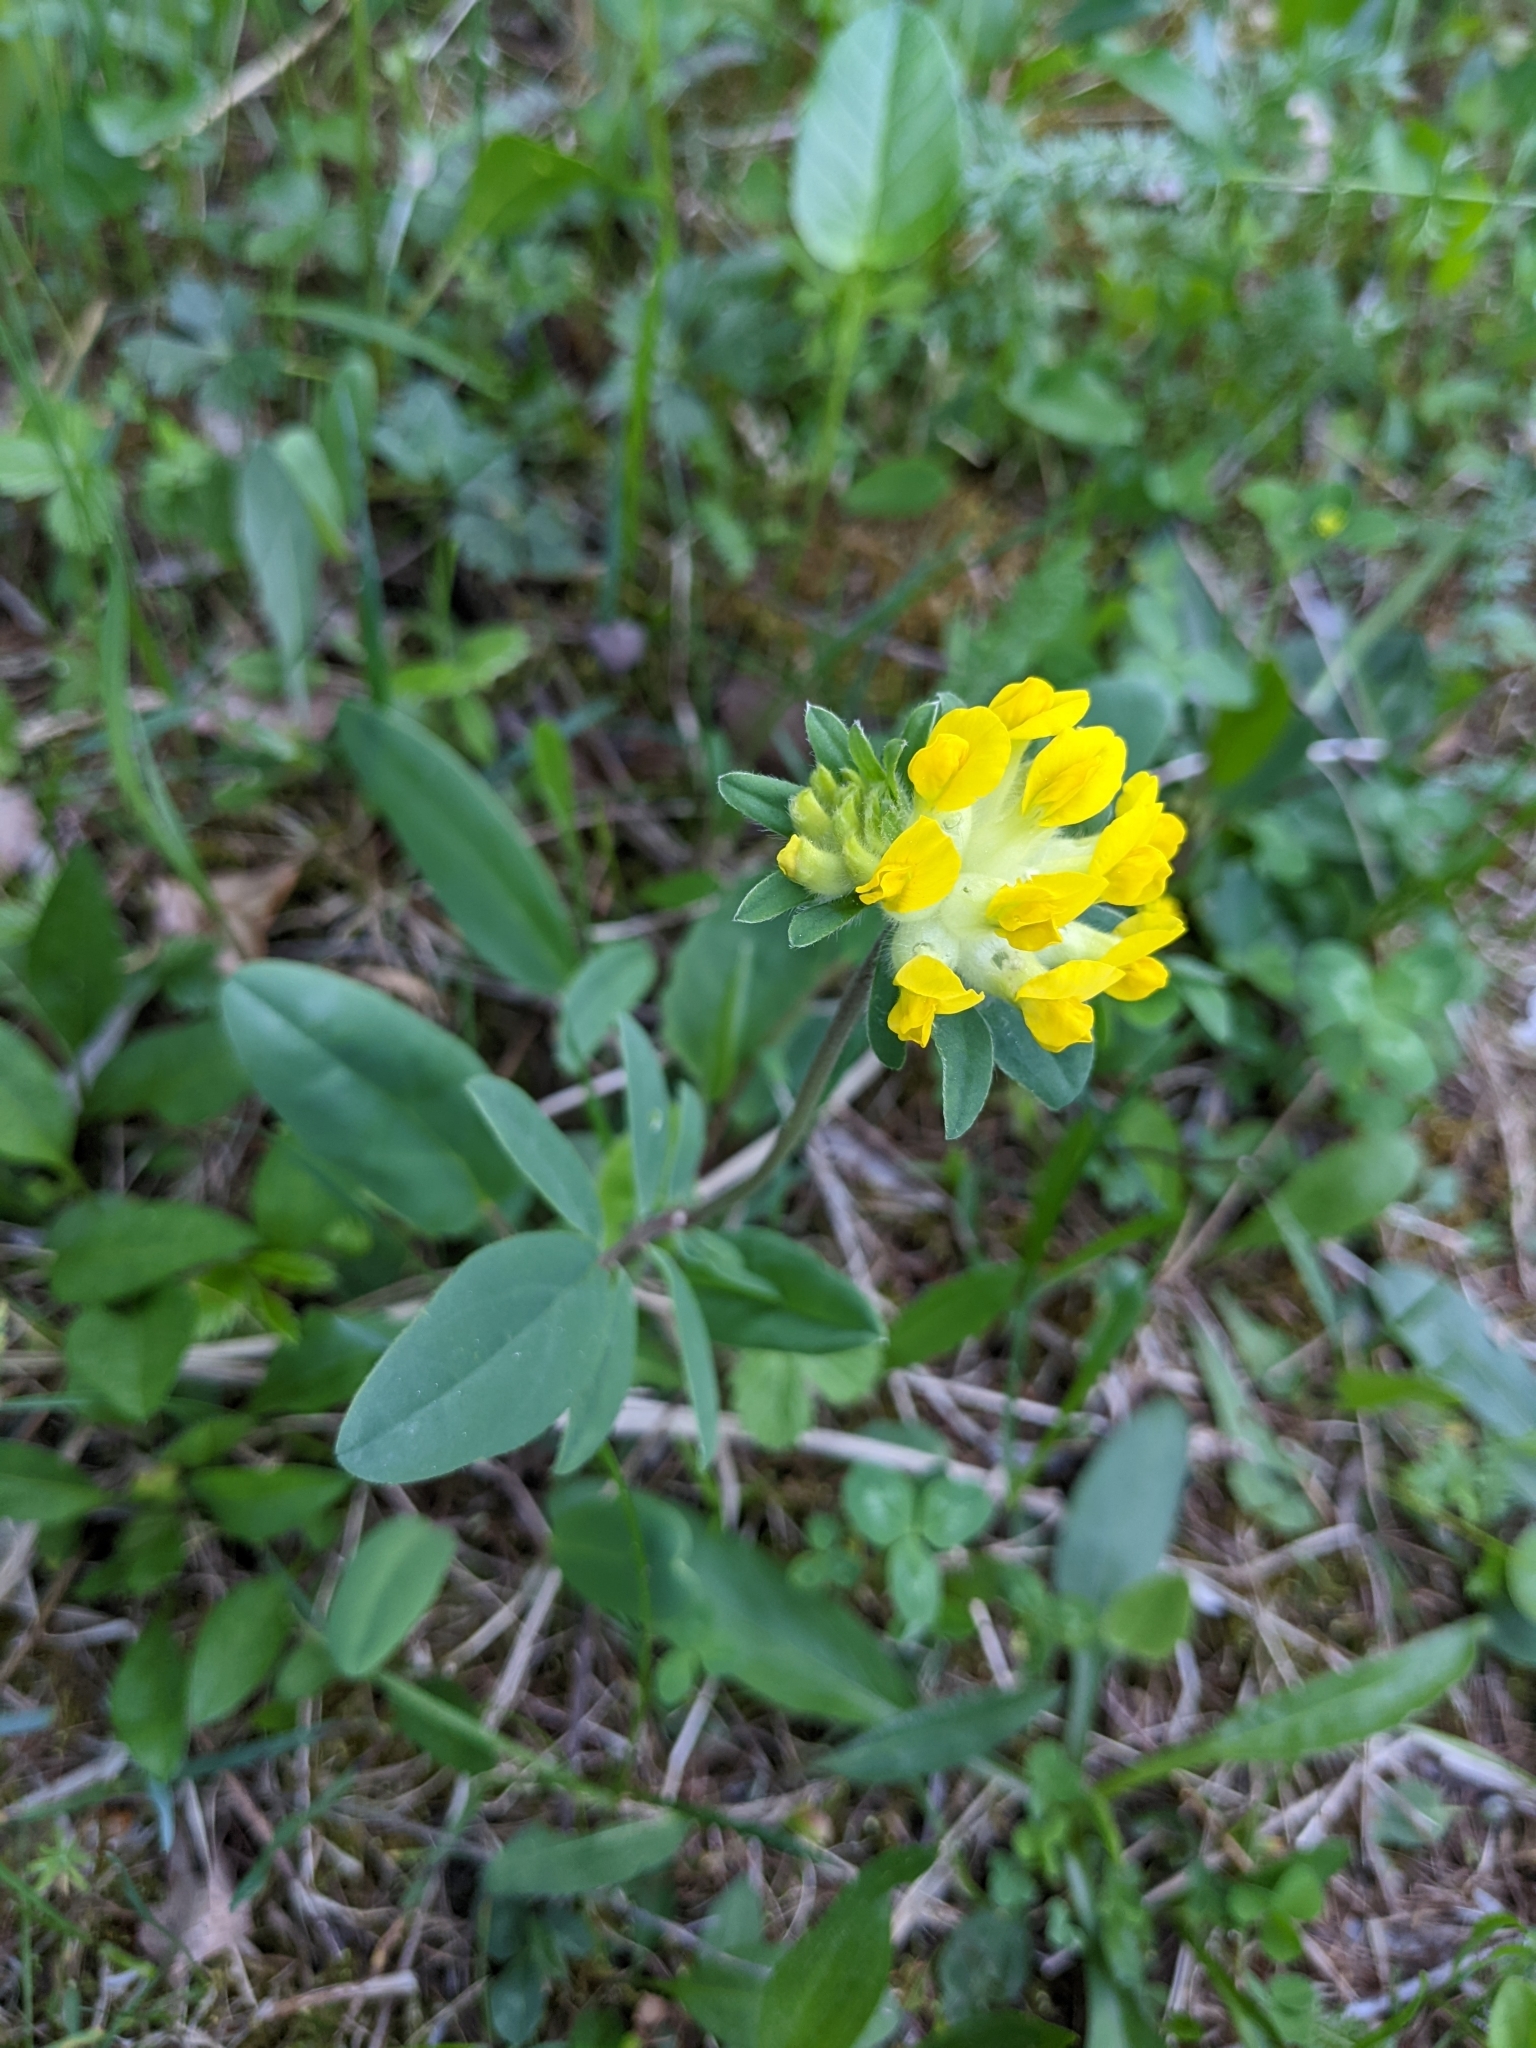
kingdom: Plantae
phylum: Tracheophyta
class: Magnoliopsida
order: Fabales
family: Fabaceae
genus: Anthyllis
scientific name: Anthyllis vulneraria
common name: Kidney vetch
